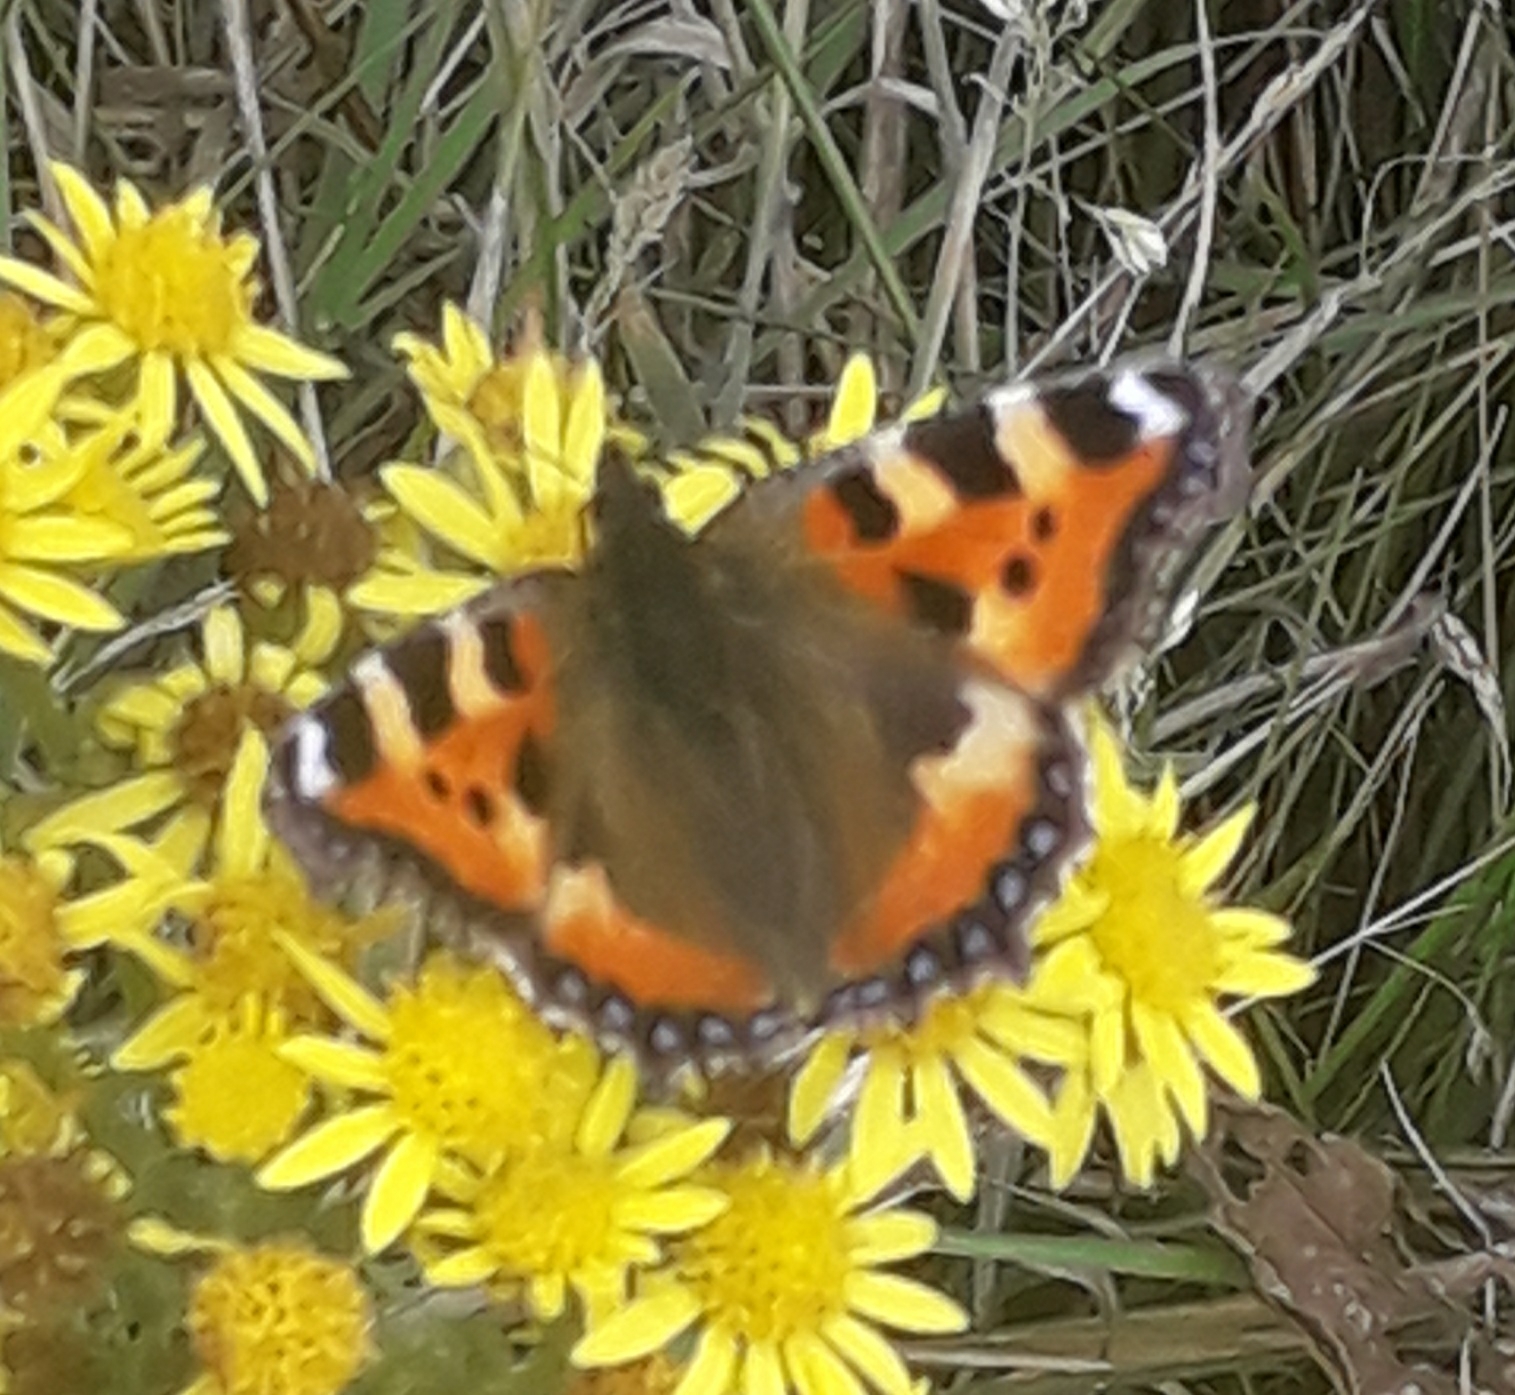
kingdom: Animalia
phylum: Arthropoda
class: Insecta
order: Lepidoptera
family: Nymphalidae
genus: Aglais
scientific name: Aglais urticae
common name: Small tortoiseshell
